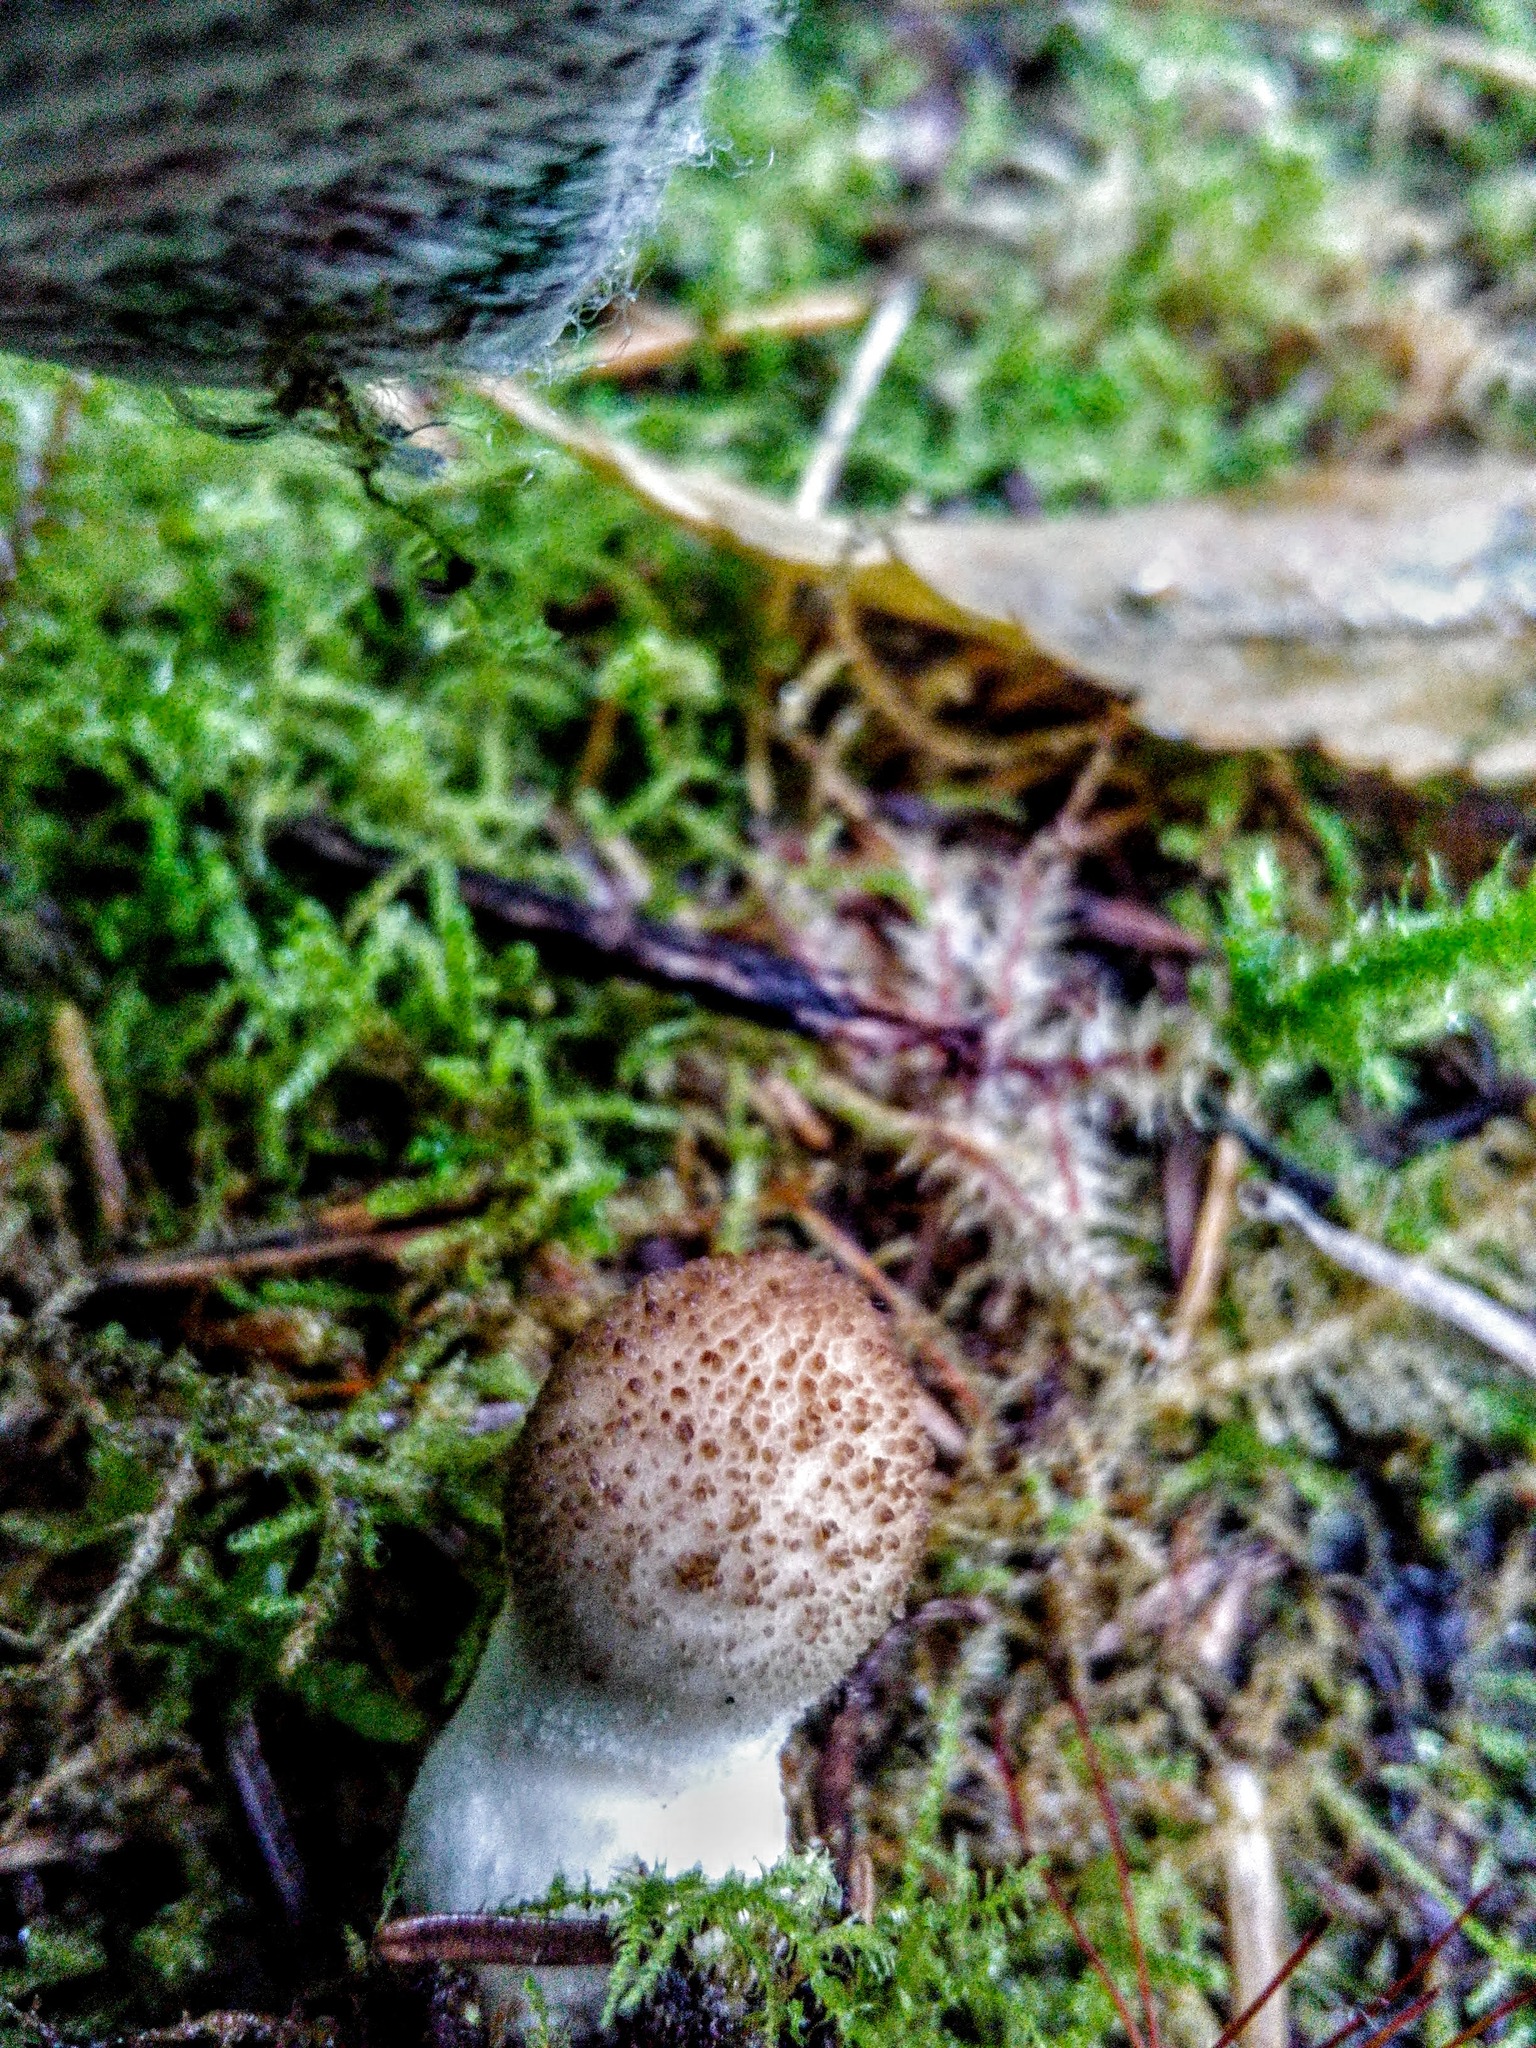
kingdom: Fungi
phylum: Basidiomycota
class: Agaricomycetes
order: Agaricales
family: Lycoperdaceae
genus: Apioperdon
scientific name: Apioperdon pyriforme
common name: Pear-shaped puffball
